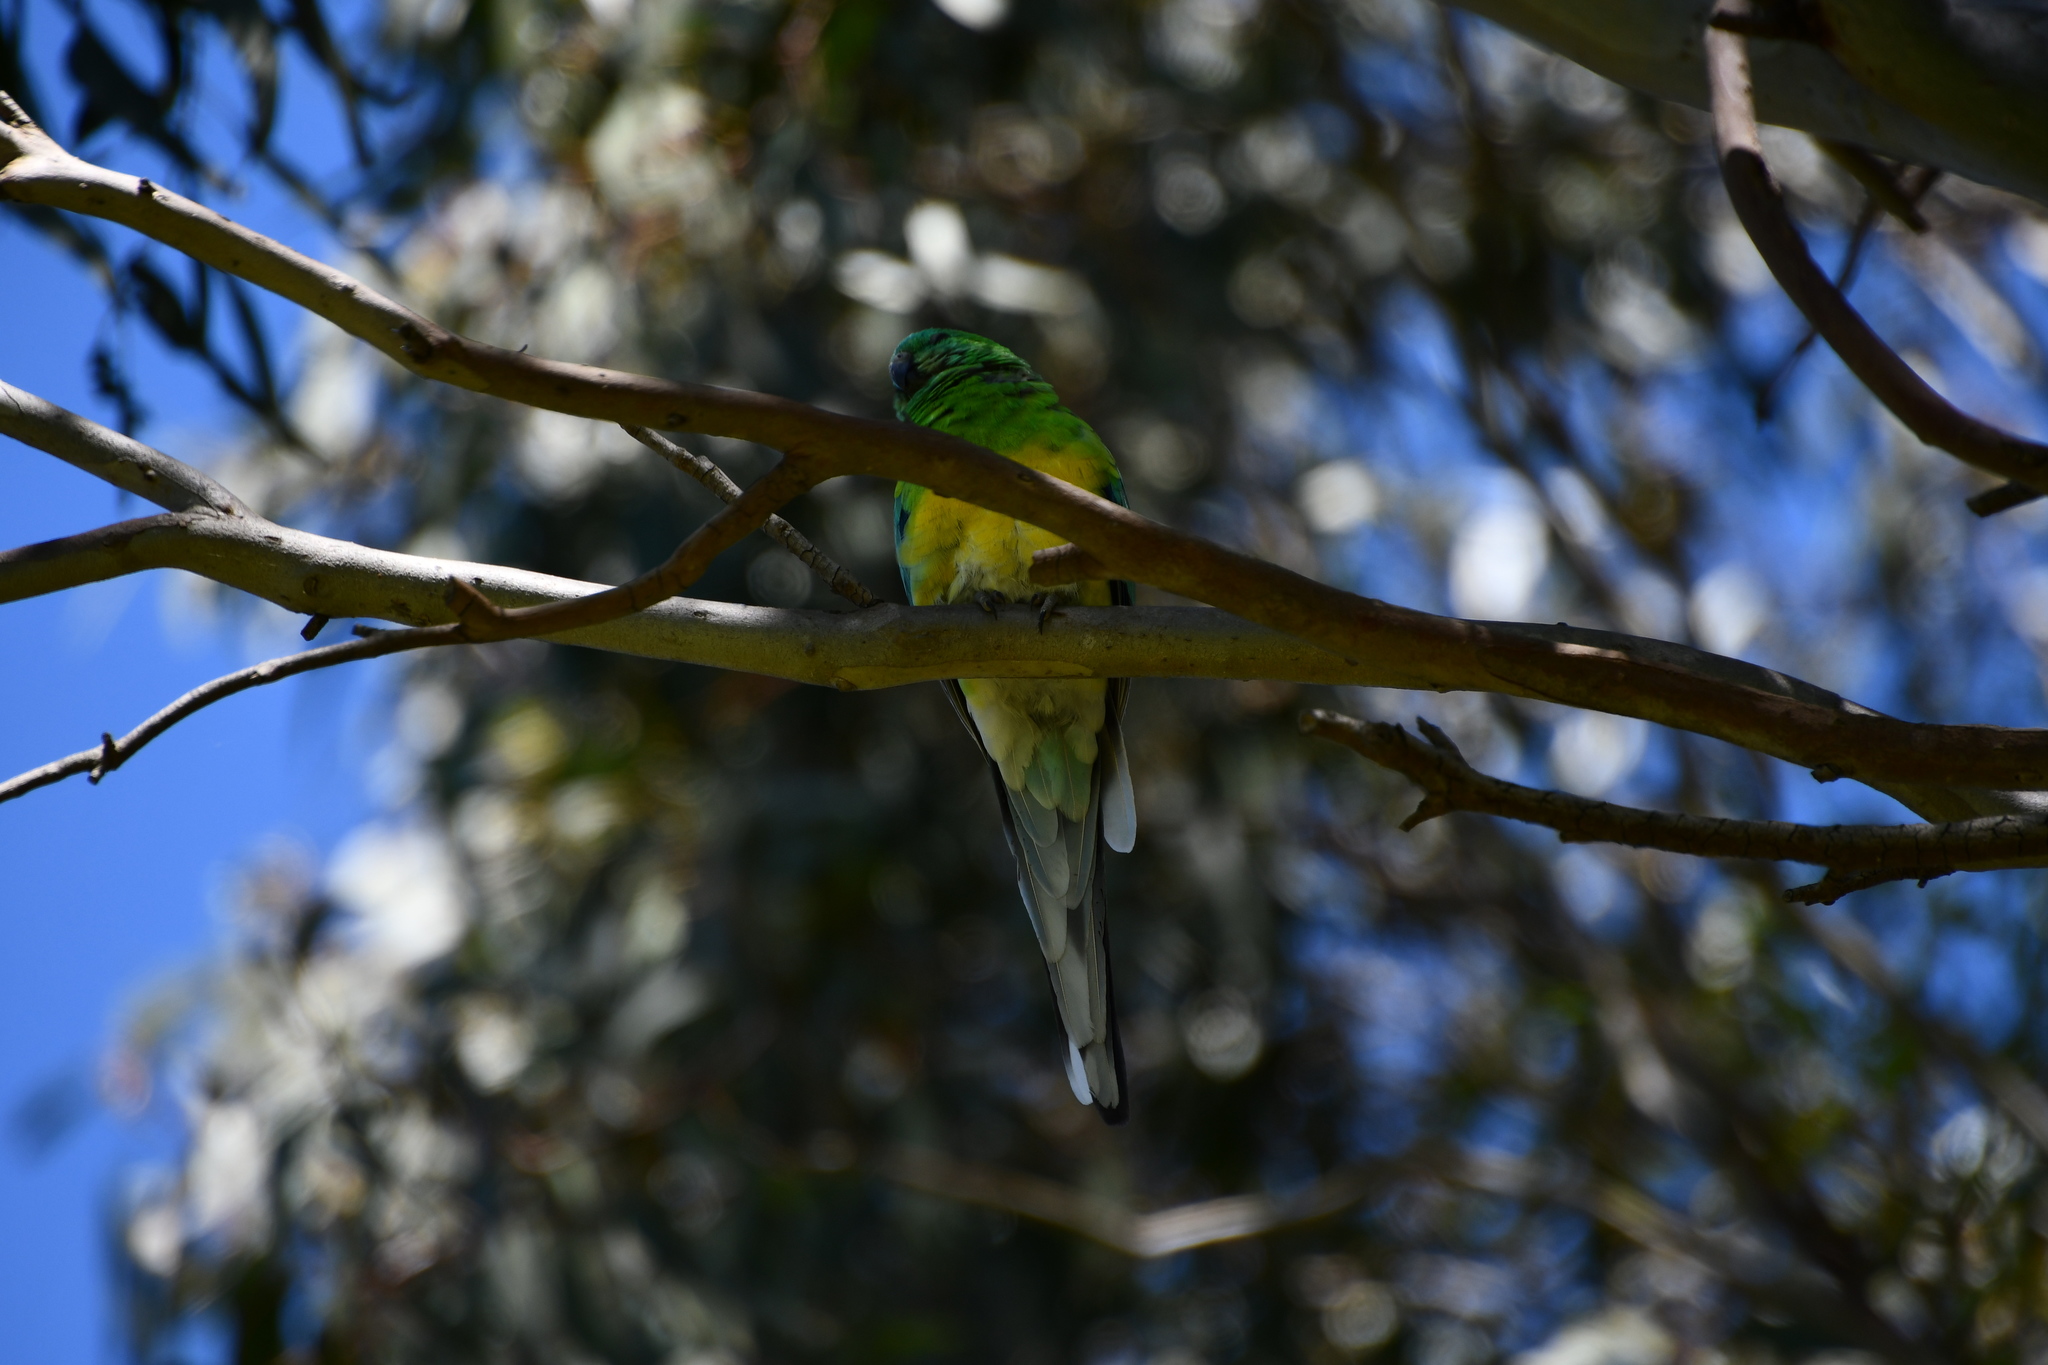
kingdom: Animalia
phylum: Chordata
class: Aves
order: Psittaciformes
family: Psittacidae
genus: Psephotus
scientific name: Psephotus haematonotus
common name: Red-rumped parrot
